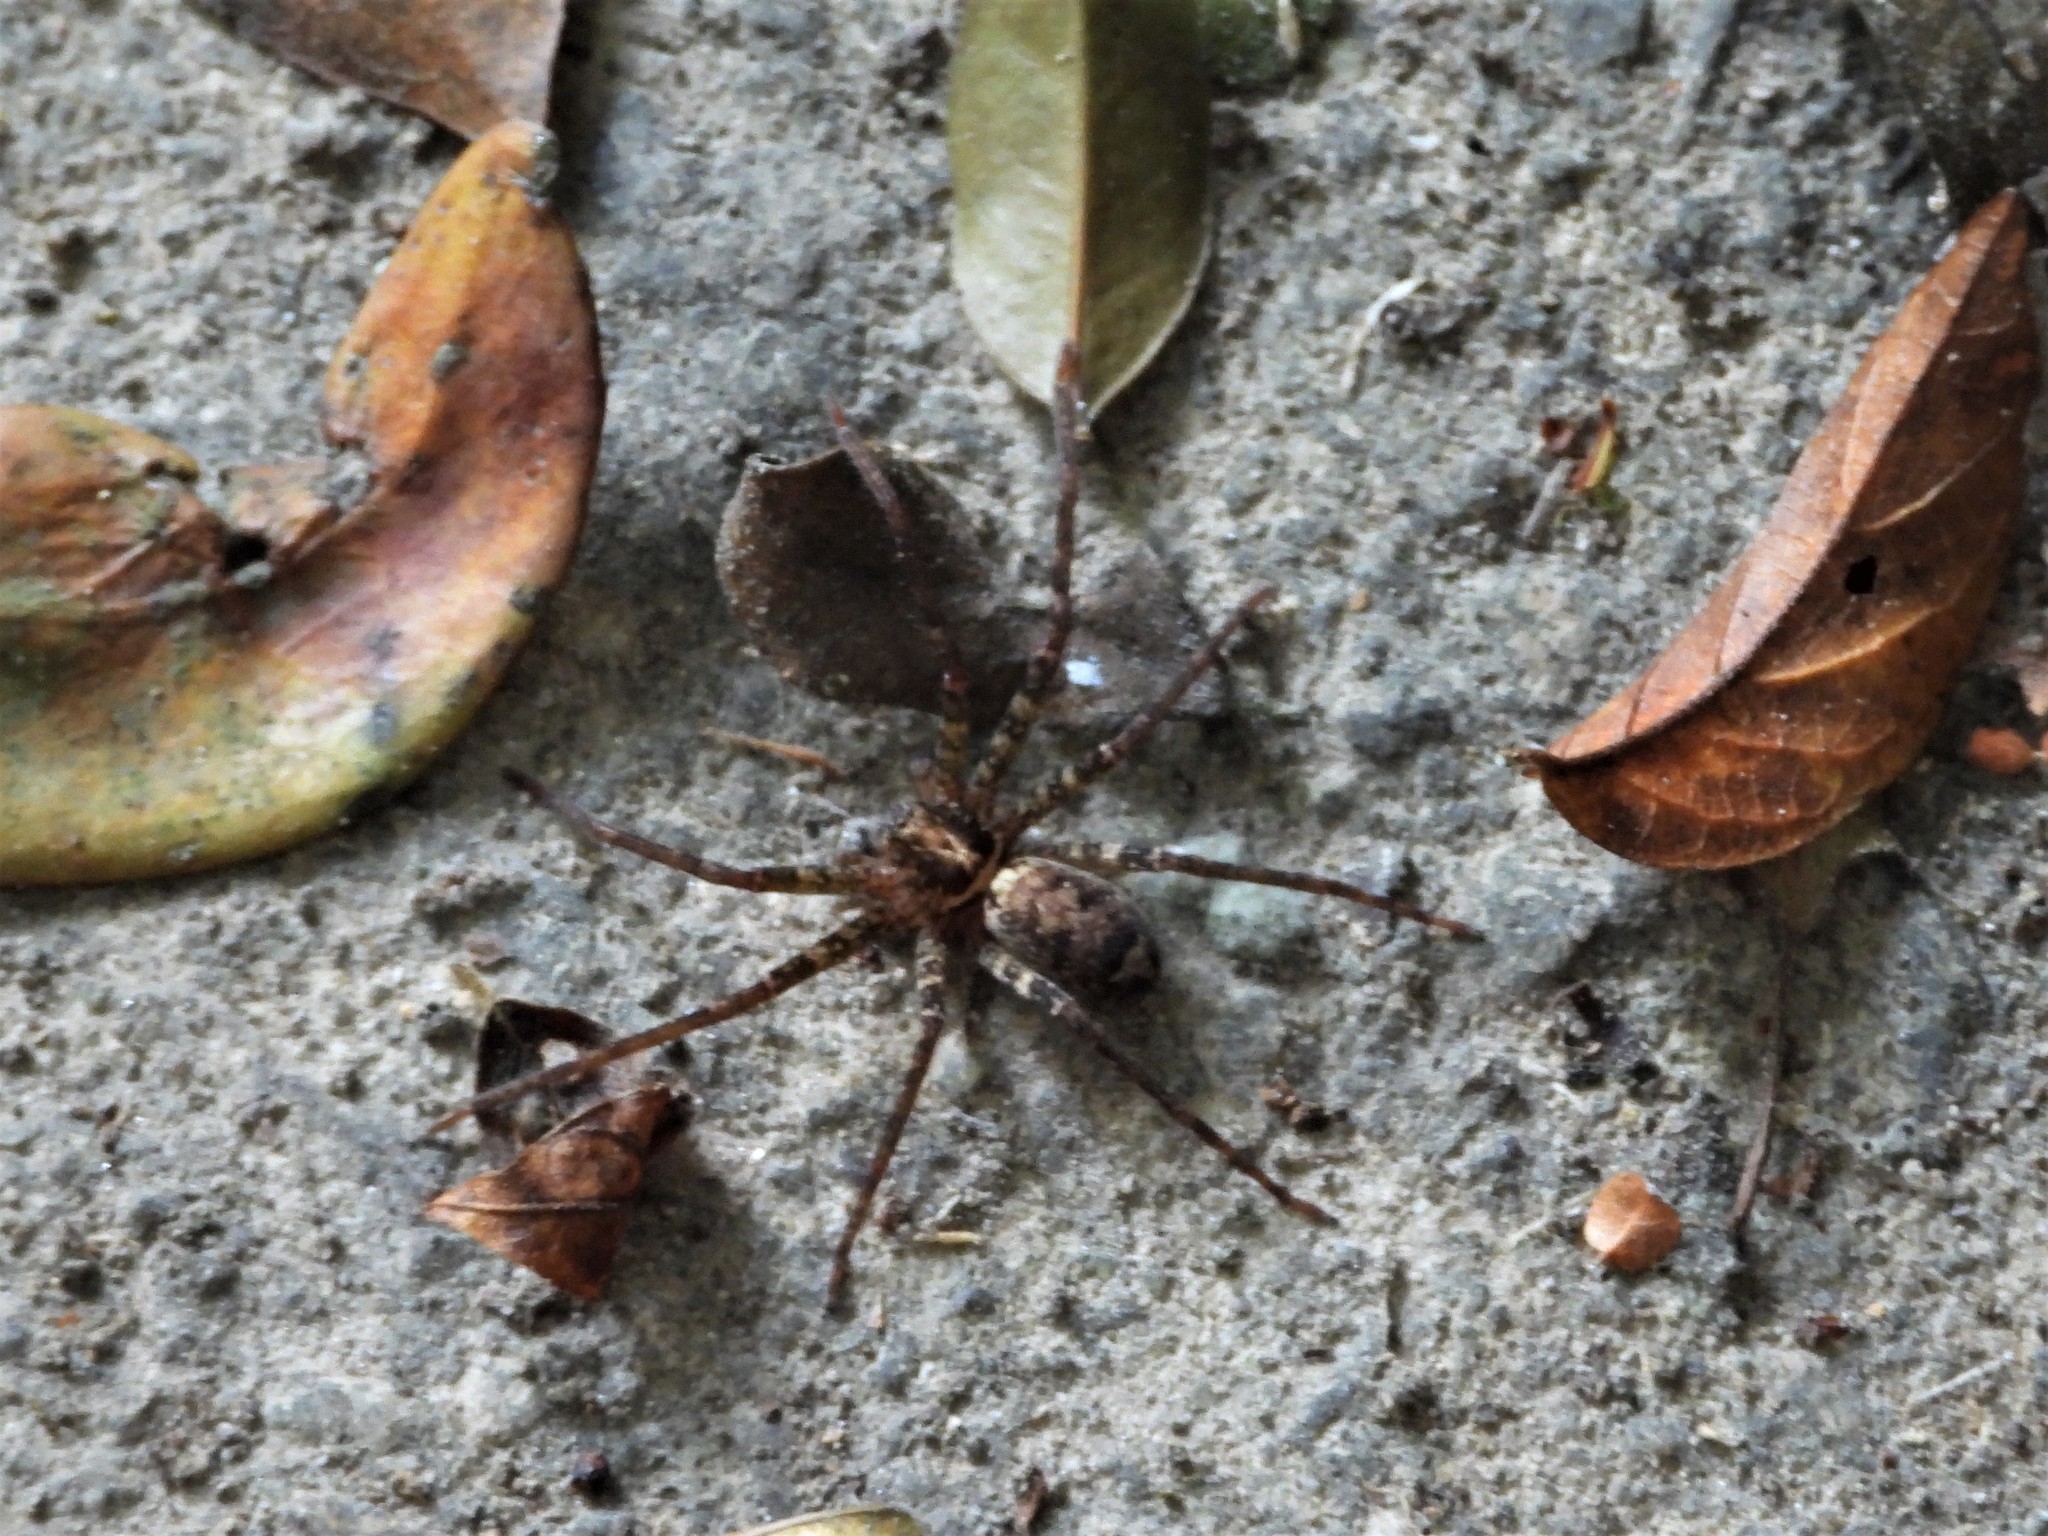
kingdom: Animalia
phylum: Arthropoda
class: Arachnida
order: Araneae
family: Sparassidae
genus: Heteropoda
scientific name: Heteropoda amphora
